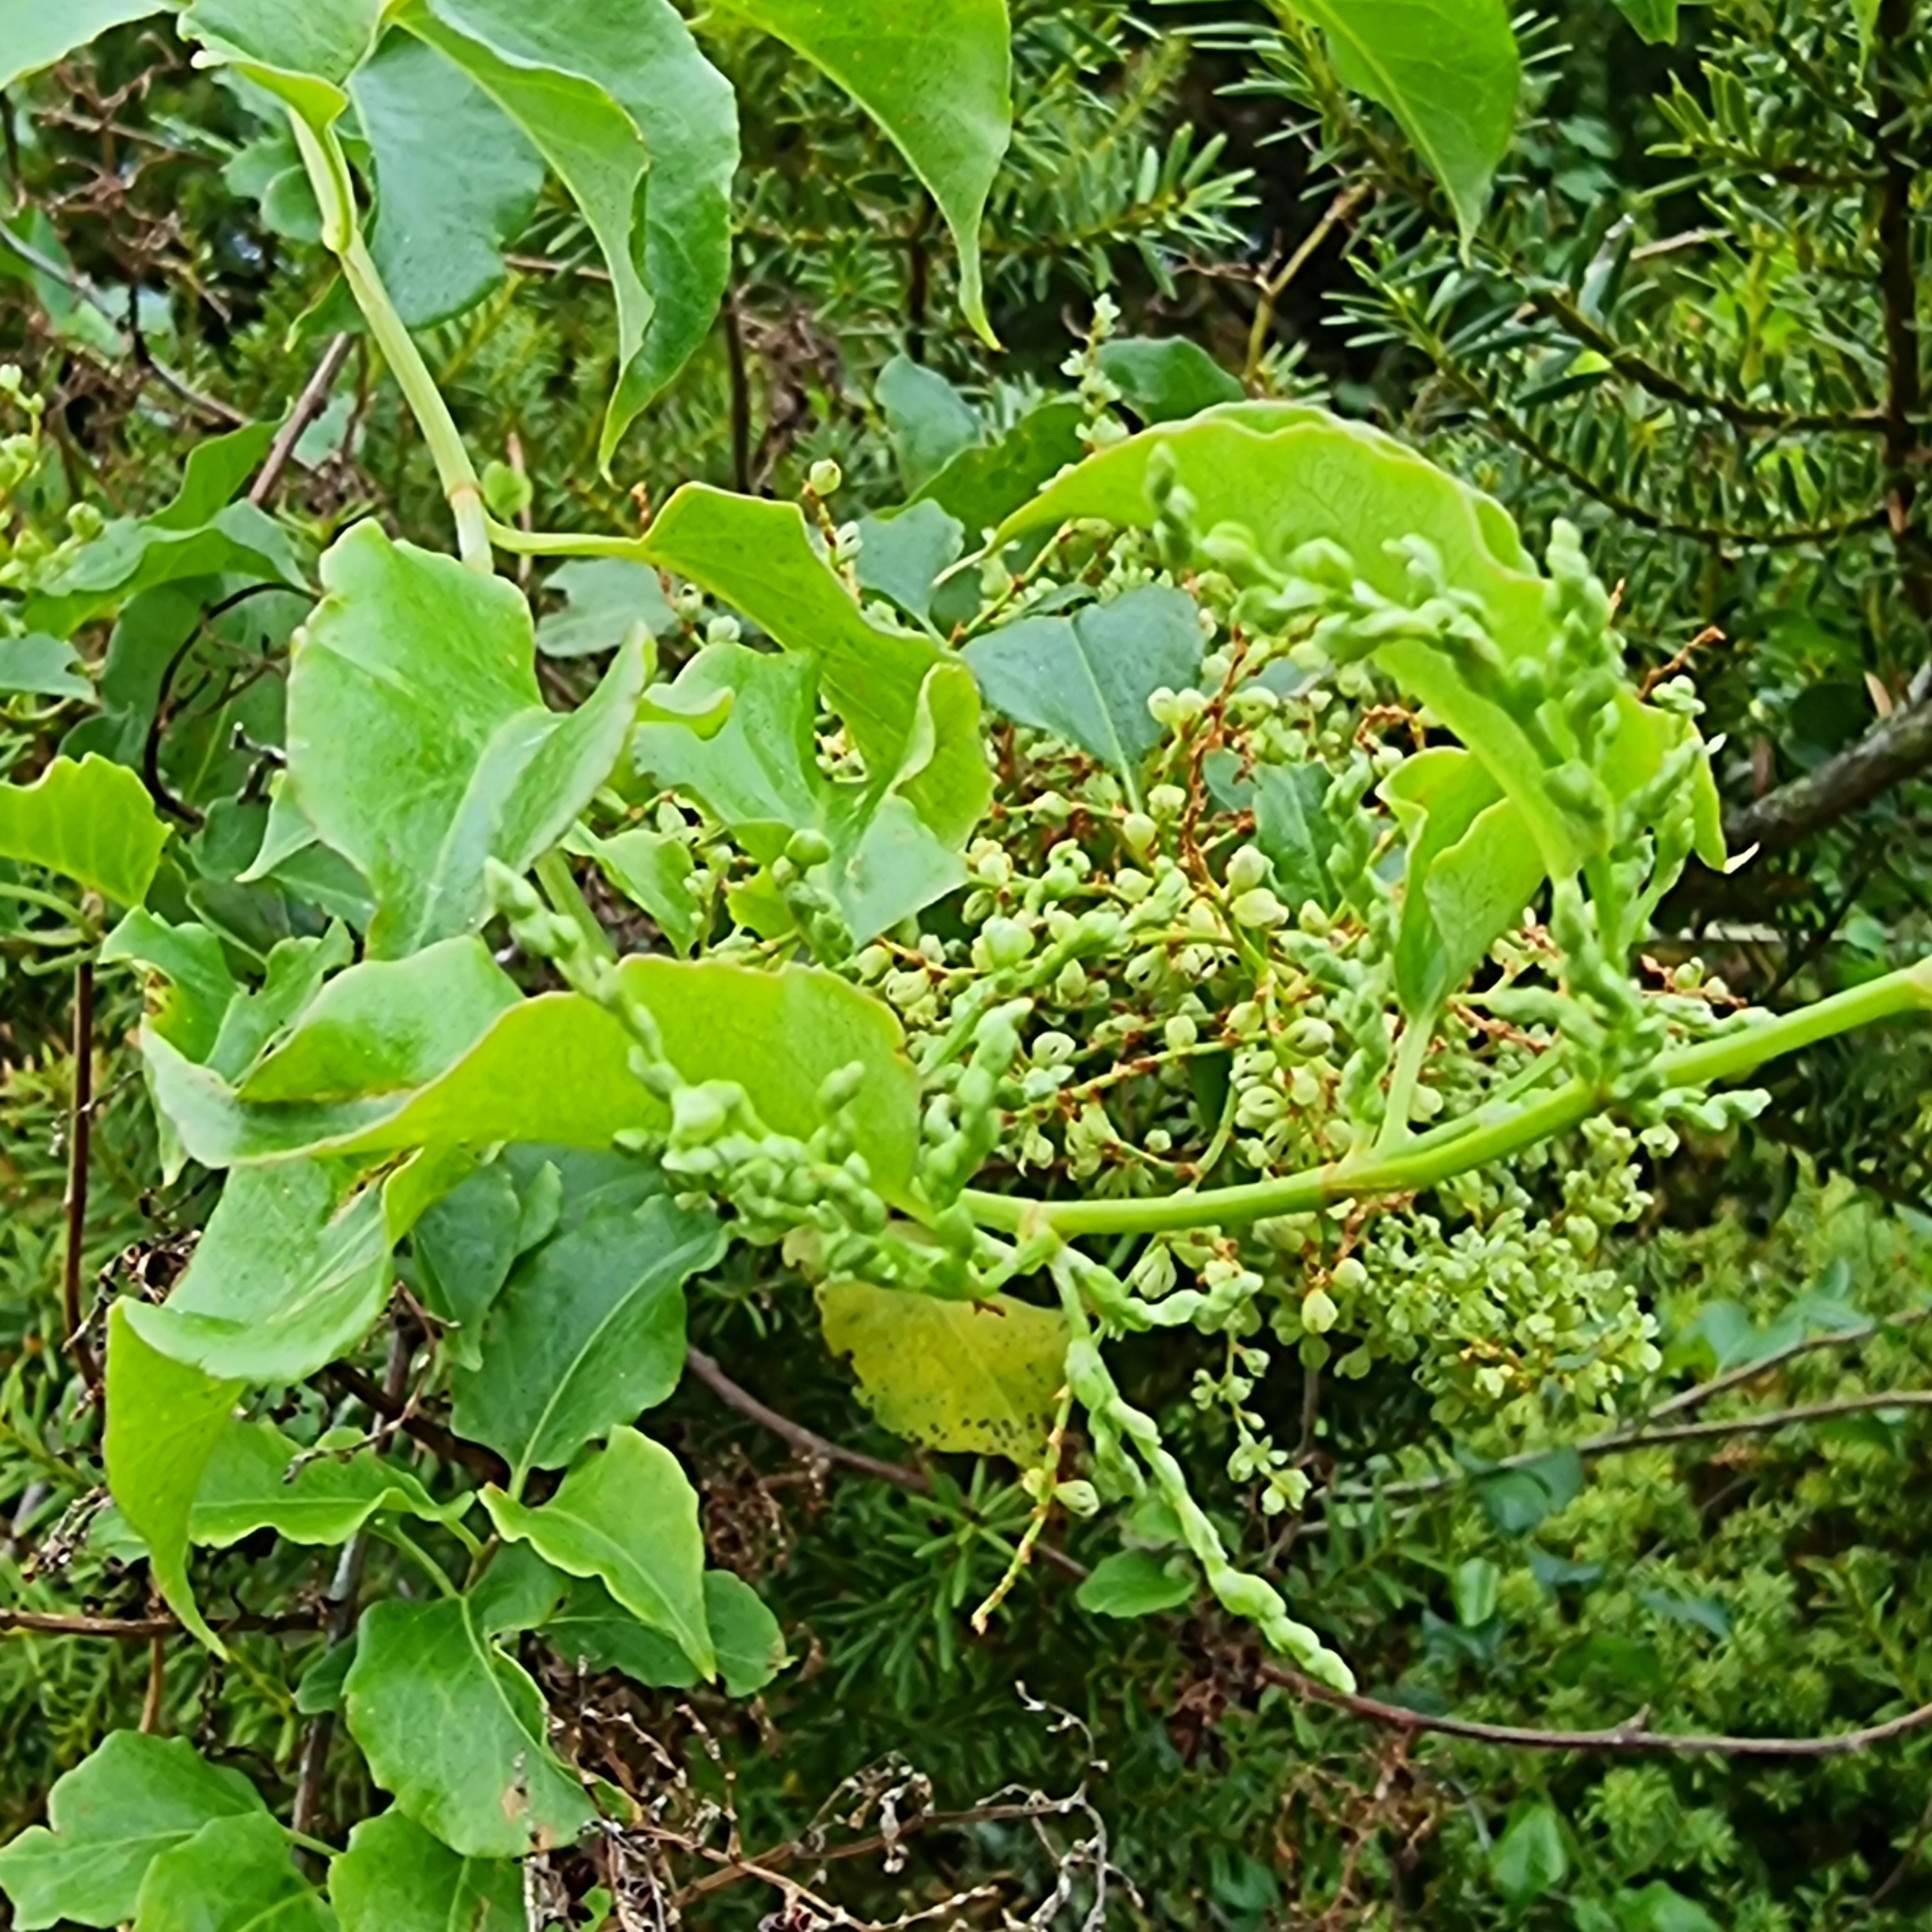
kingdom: Plantae
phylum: Tracheophyta
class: Magnoliopsida
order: Caryophyllales
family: Polygonaceae
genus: Muehlenbeckia
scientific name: Muehlenbeckia australis
